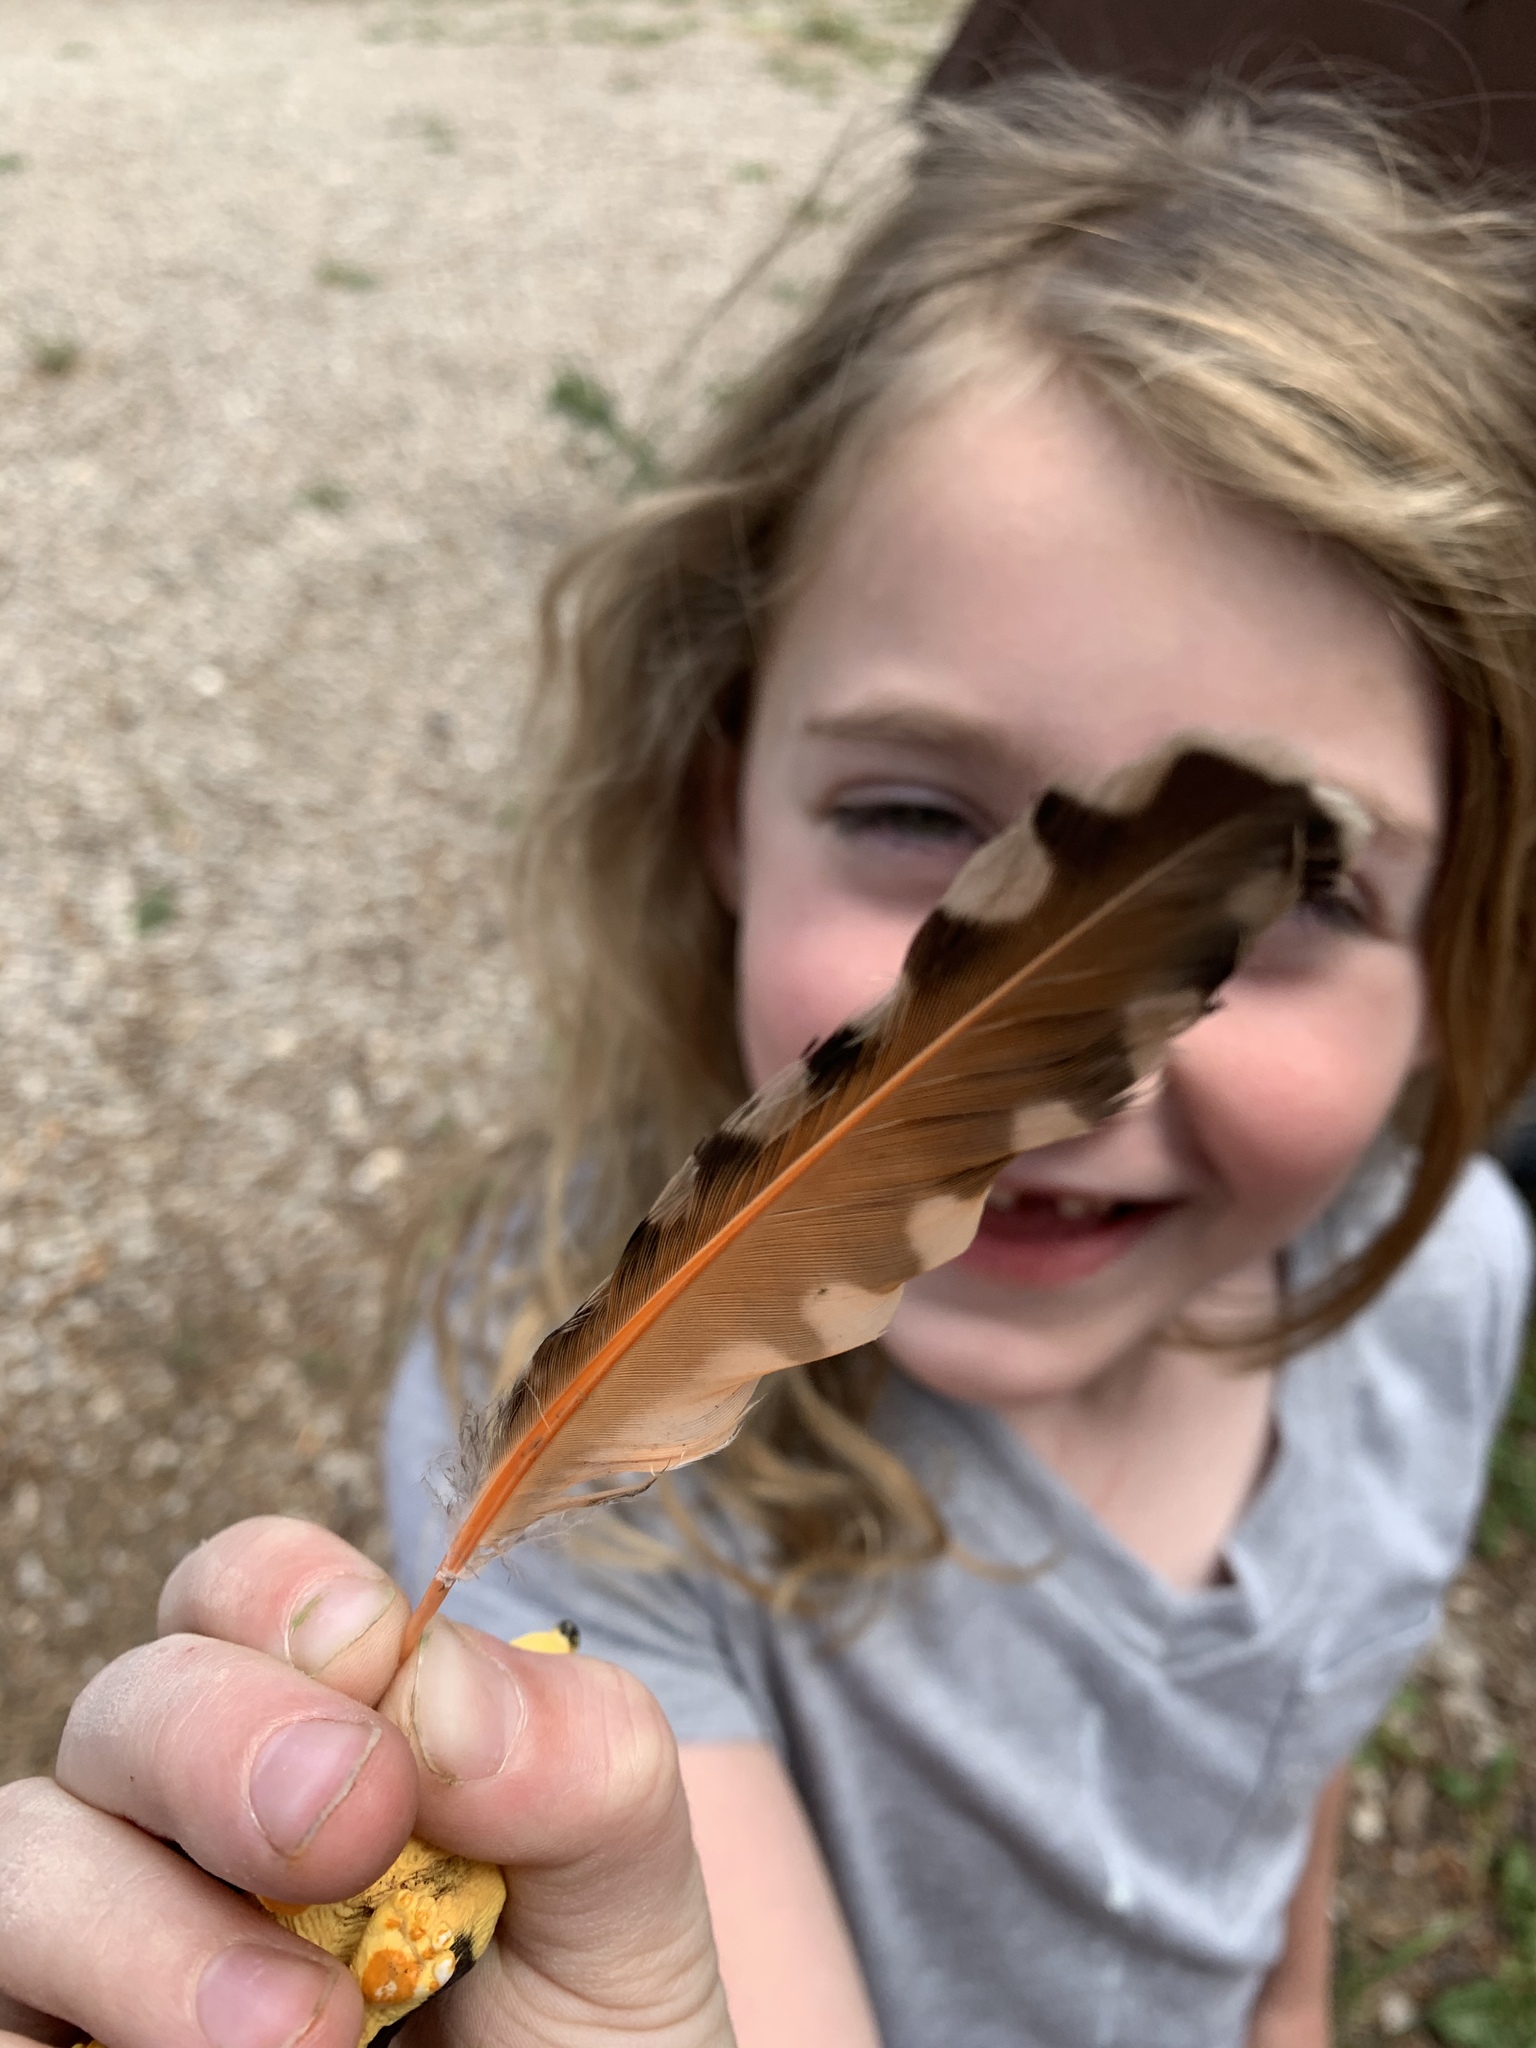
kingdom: Animalia
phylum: Chordata
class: Aves
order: Piciformes
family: Picidae
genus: Colaptes
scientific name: Colaptes auratus
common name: Northern flicker
